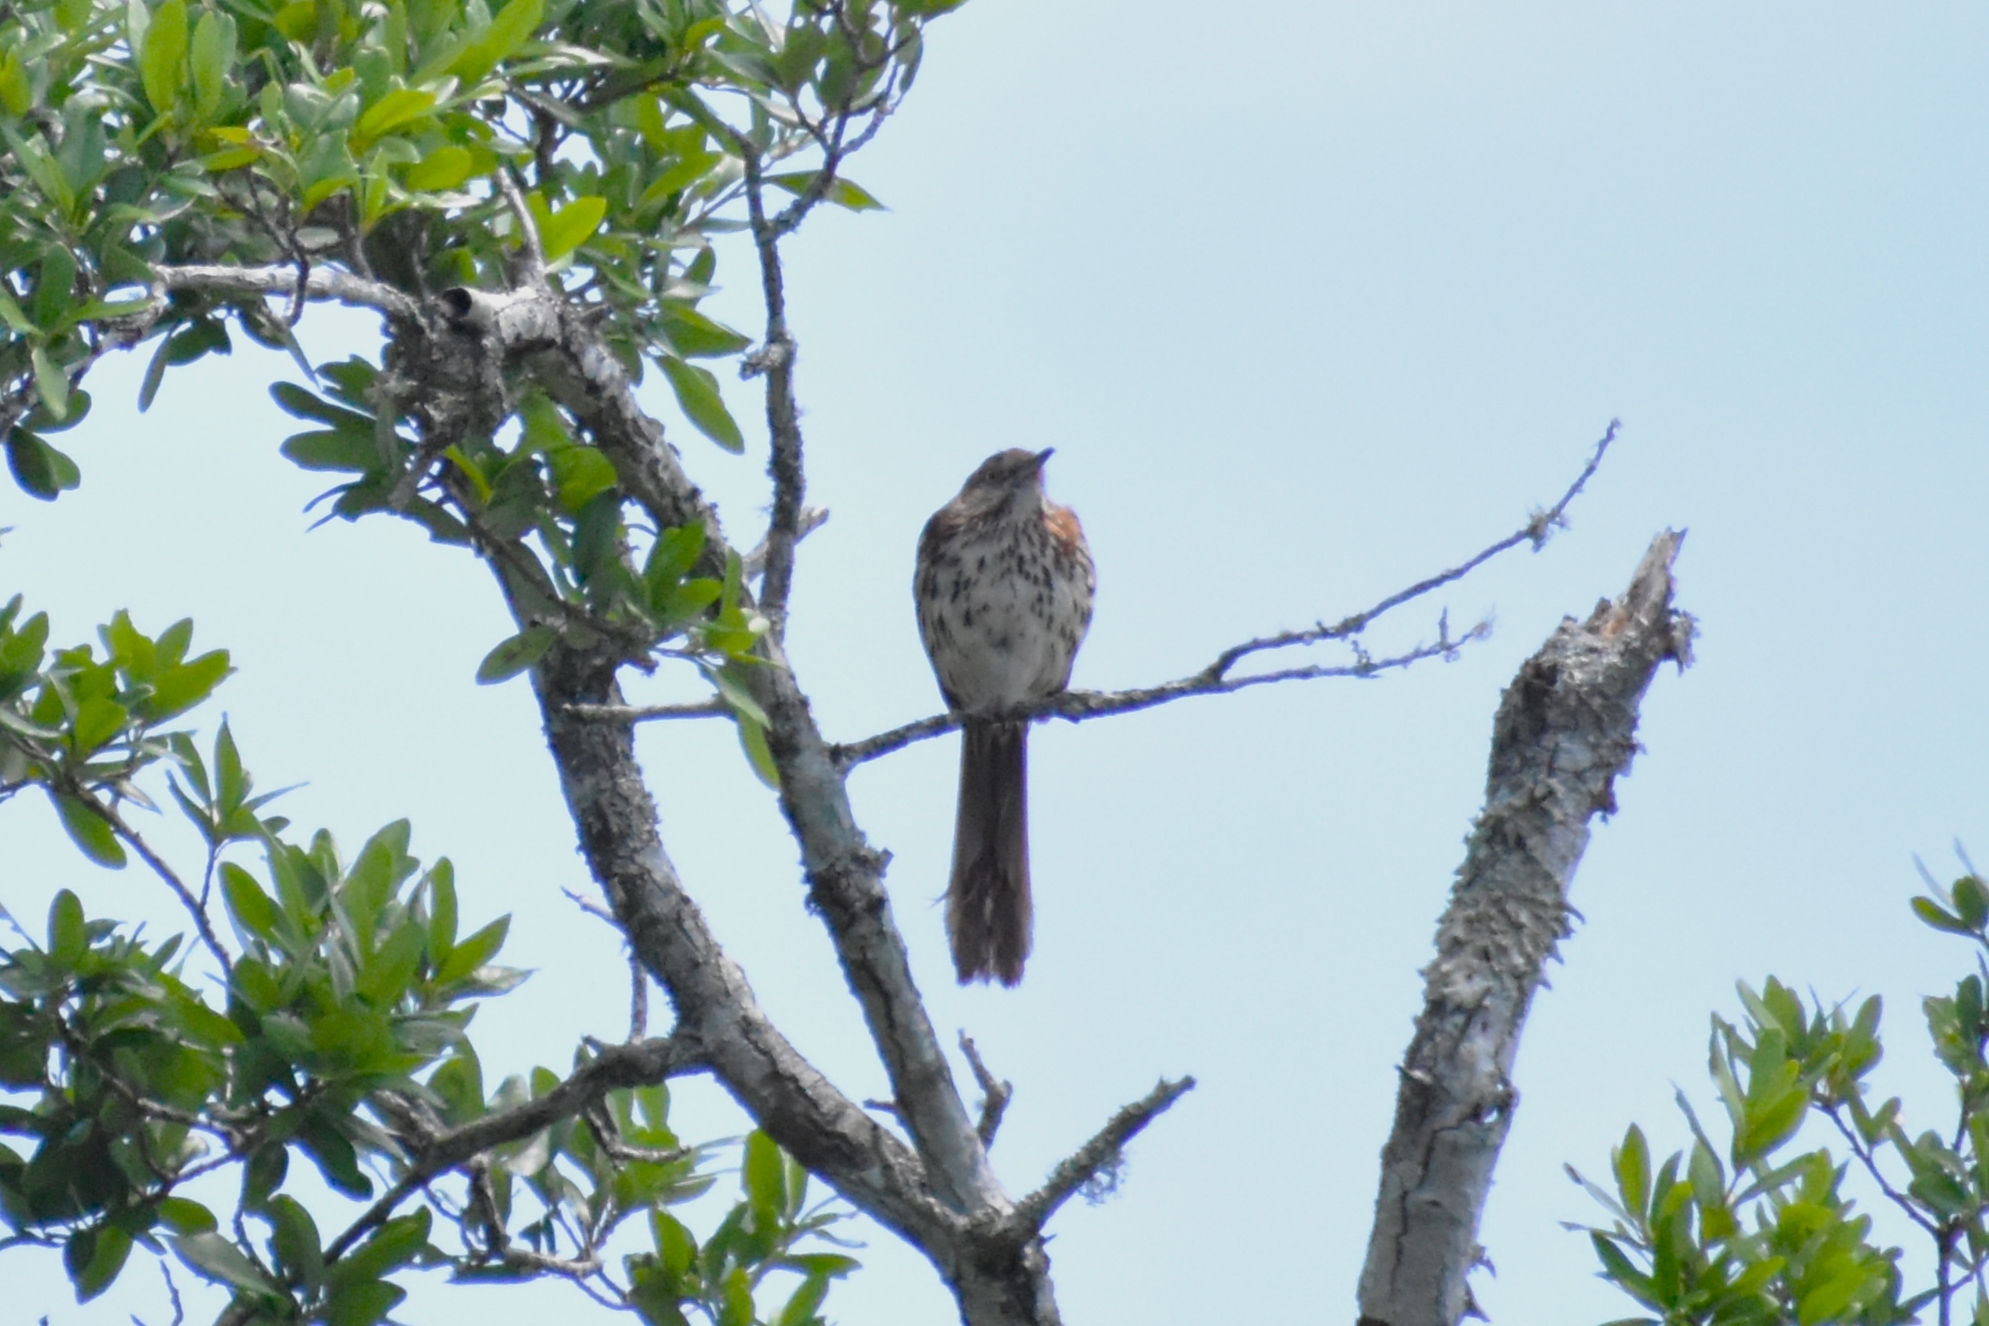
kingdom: Animalia
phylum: Chordata
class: Aves
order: Passeriformes
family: Mimidae
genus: Toxostoma
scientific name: Toxostoma rufum
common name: Brown thrasher
